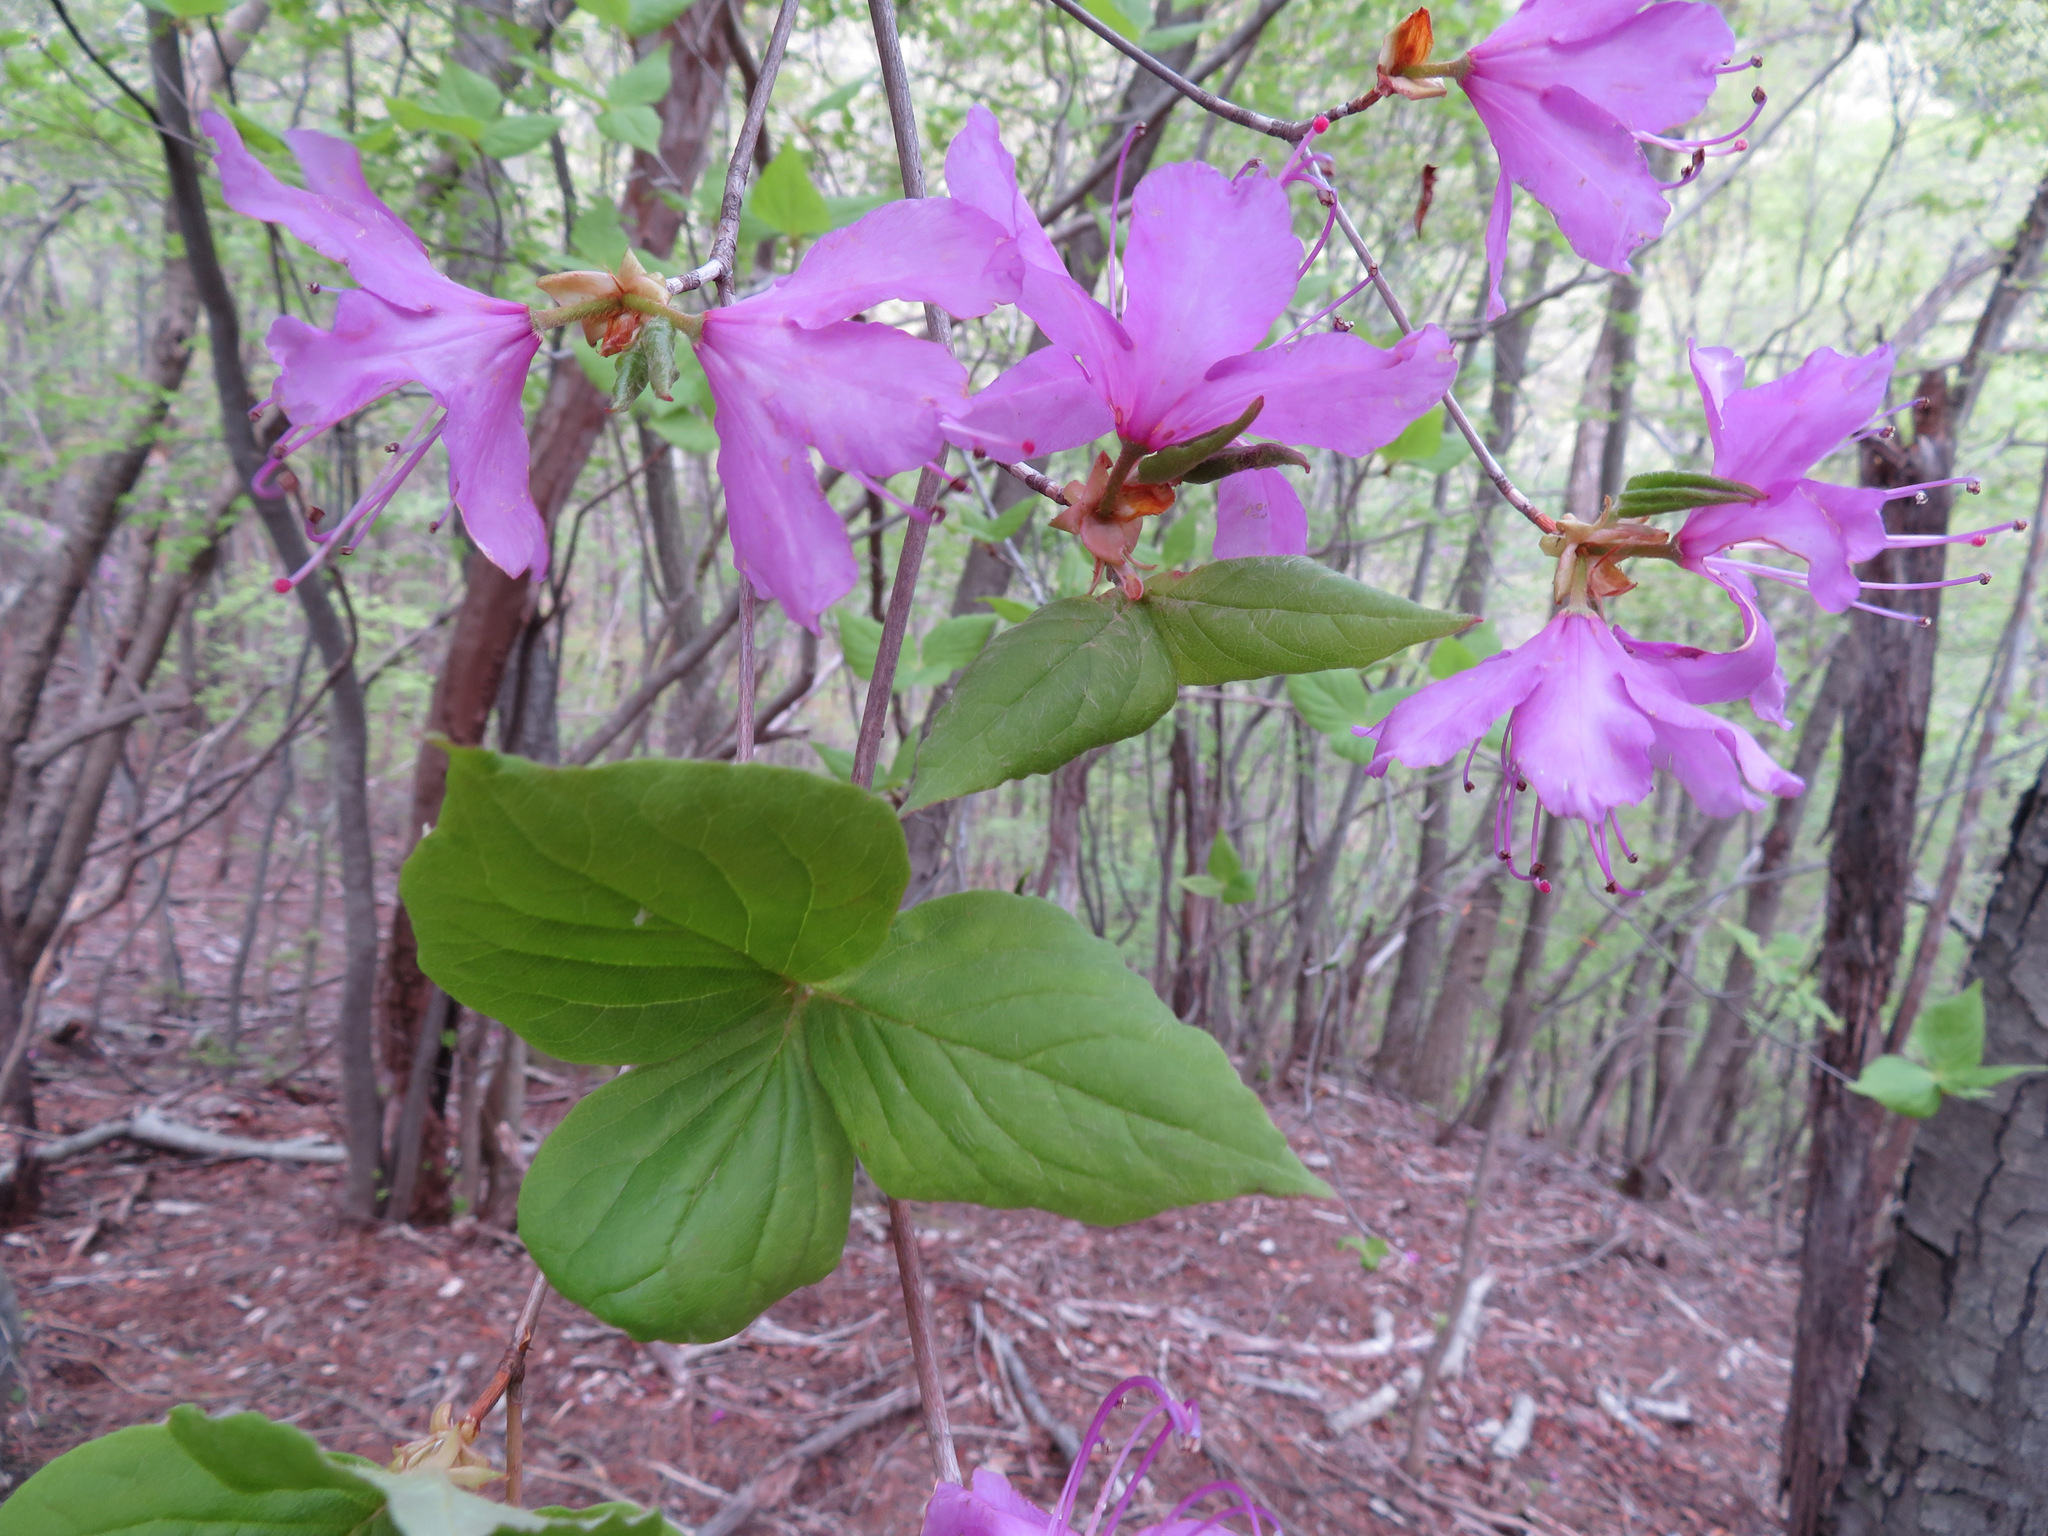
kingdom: Plantae
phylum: Tracheophyta
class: Magnoliopsida
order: Ericales
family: Ericaceae
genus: Rhododendron
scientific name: Rhododendron dilatatum
